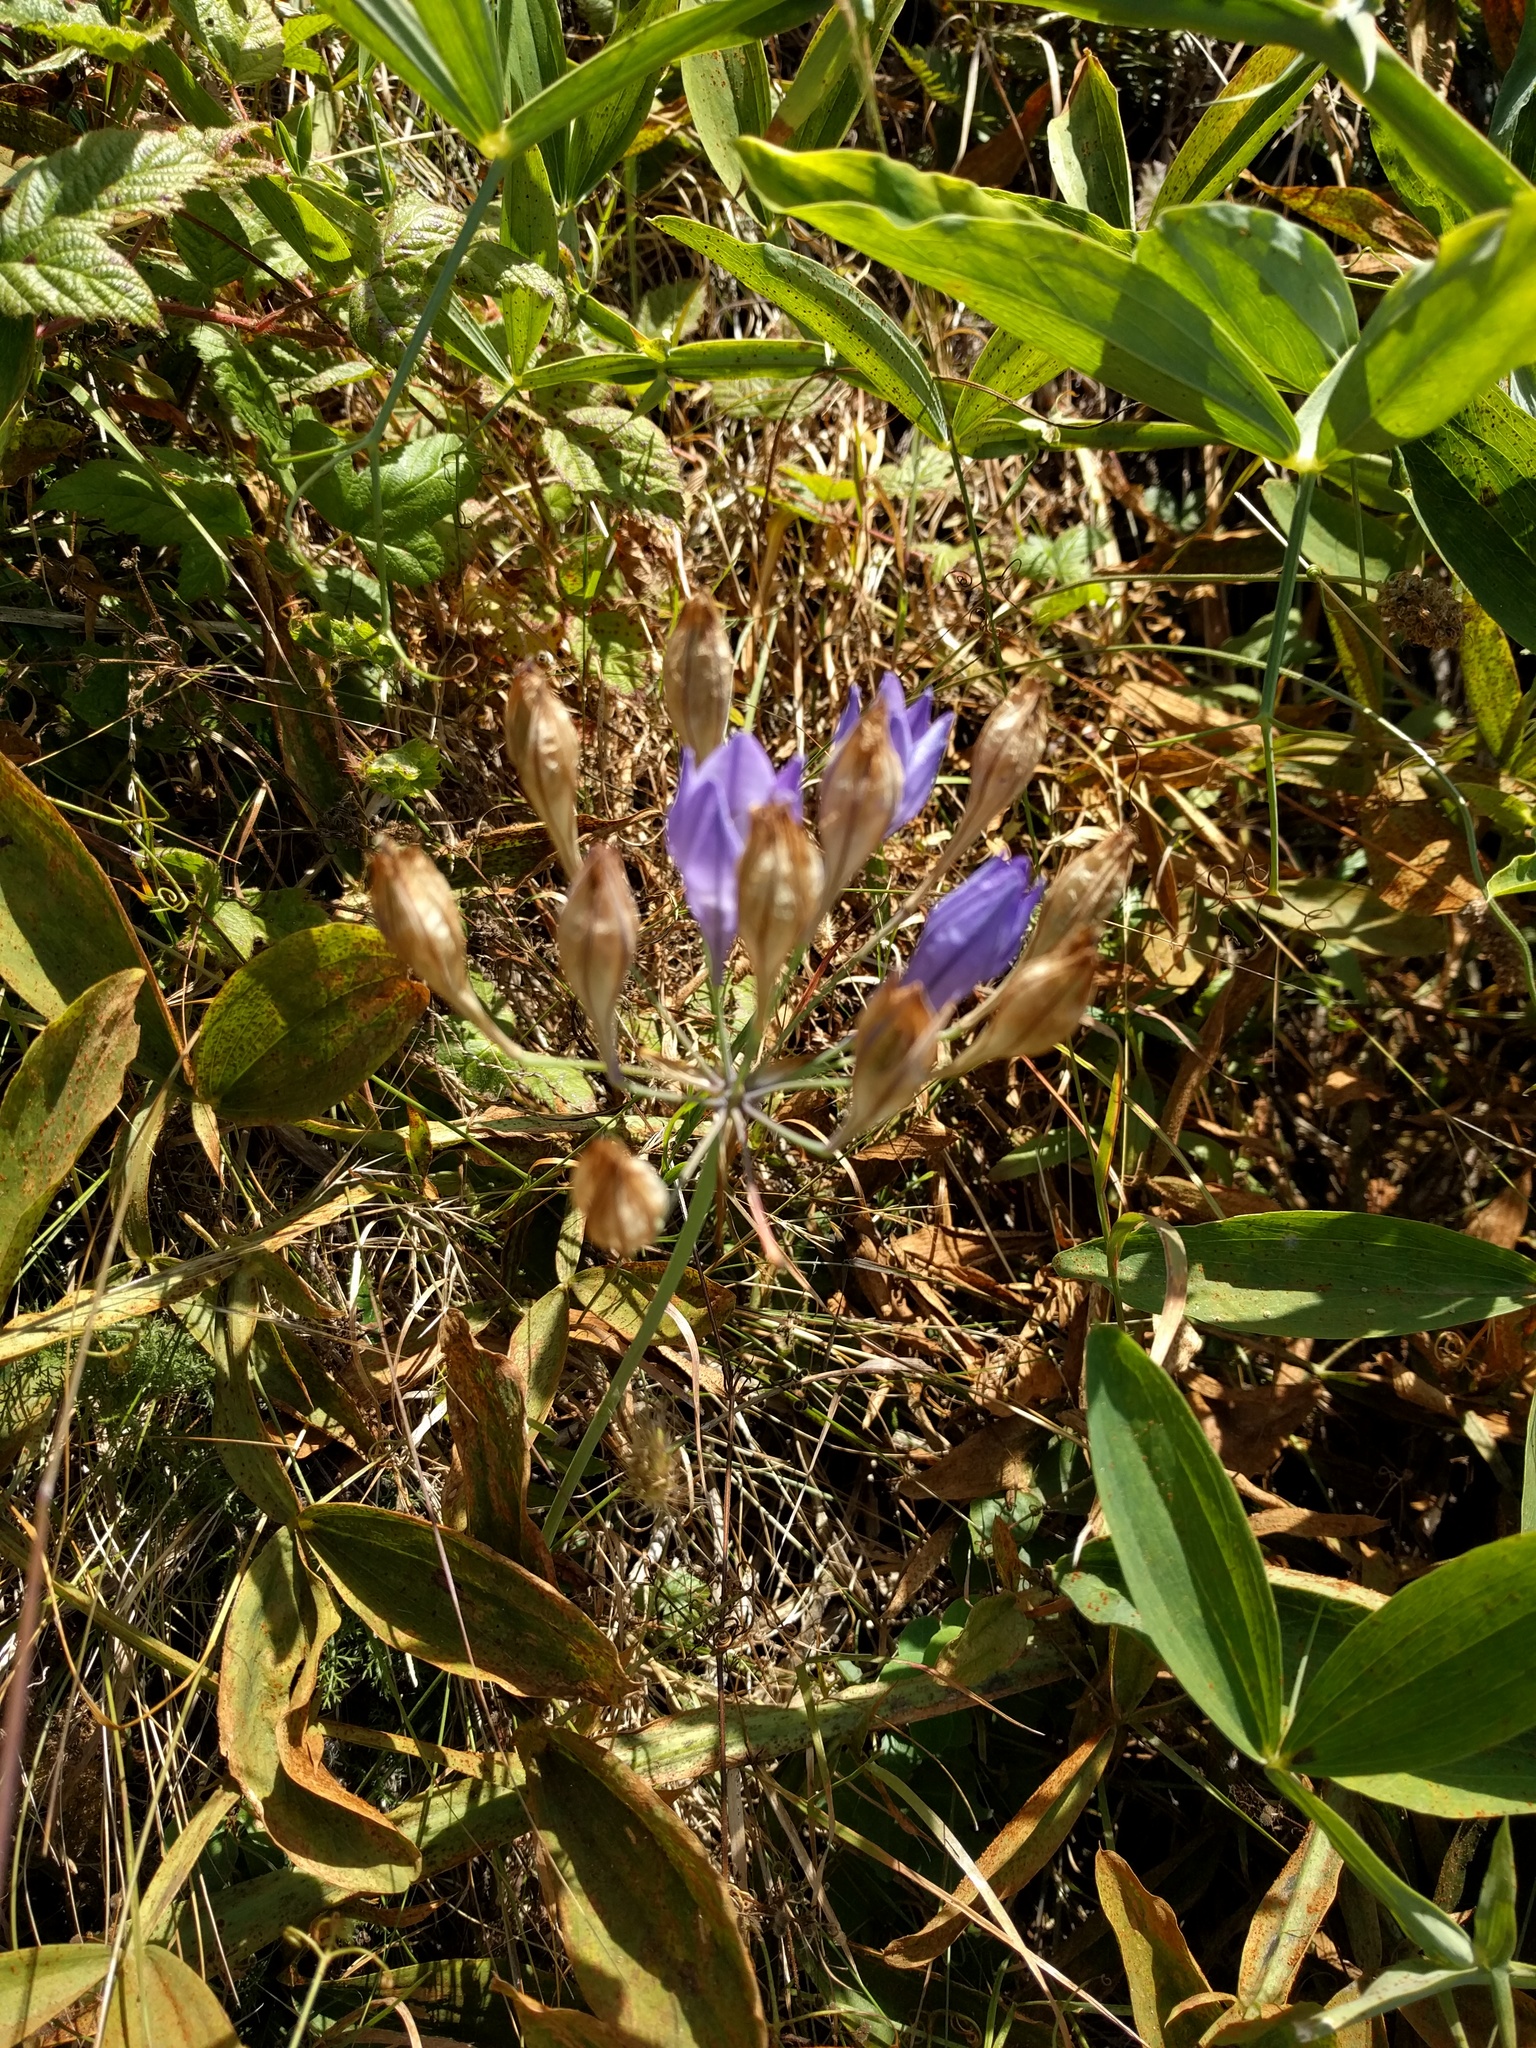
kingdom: Plantae
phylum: Tracheophyta
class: Liliopsida
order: Asparagales
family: Asparagaceae
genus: Triteleia
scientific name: Triteleia laxa
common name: Triplet-lily
